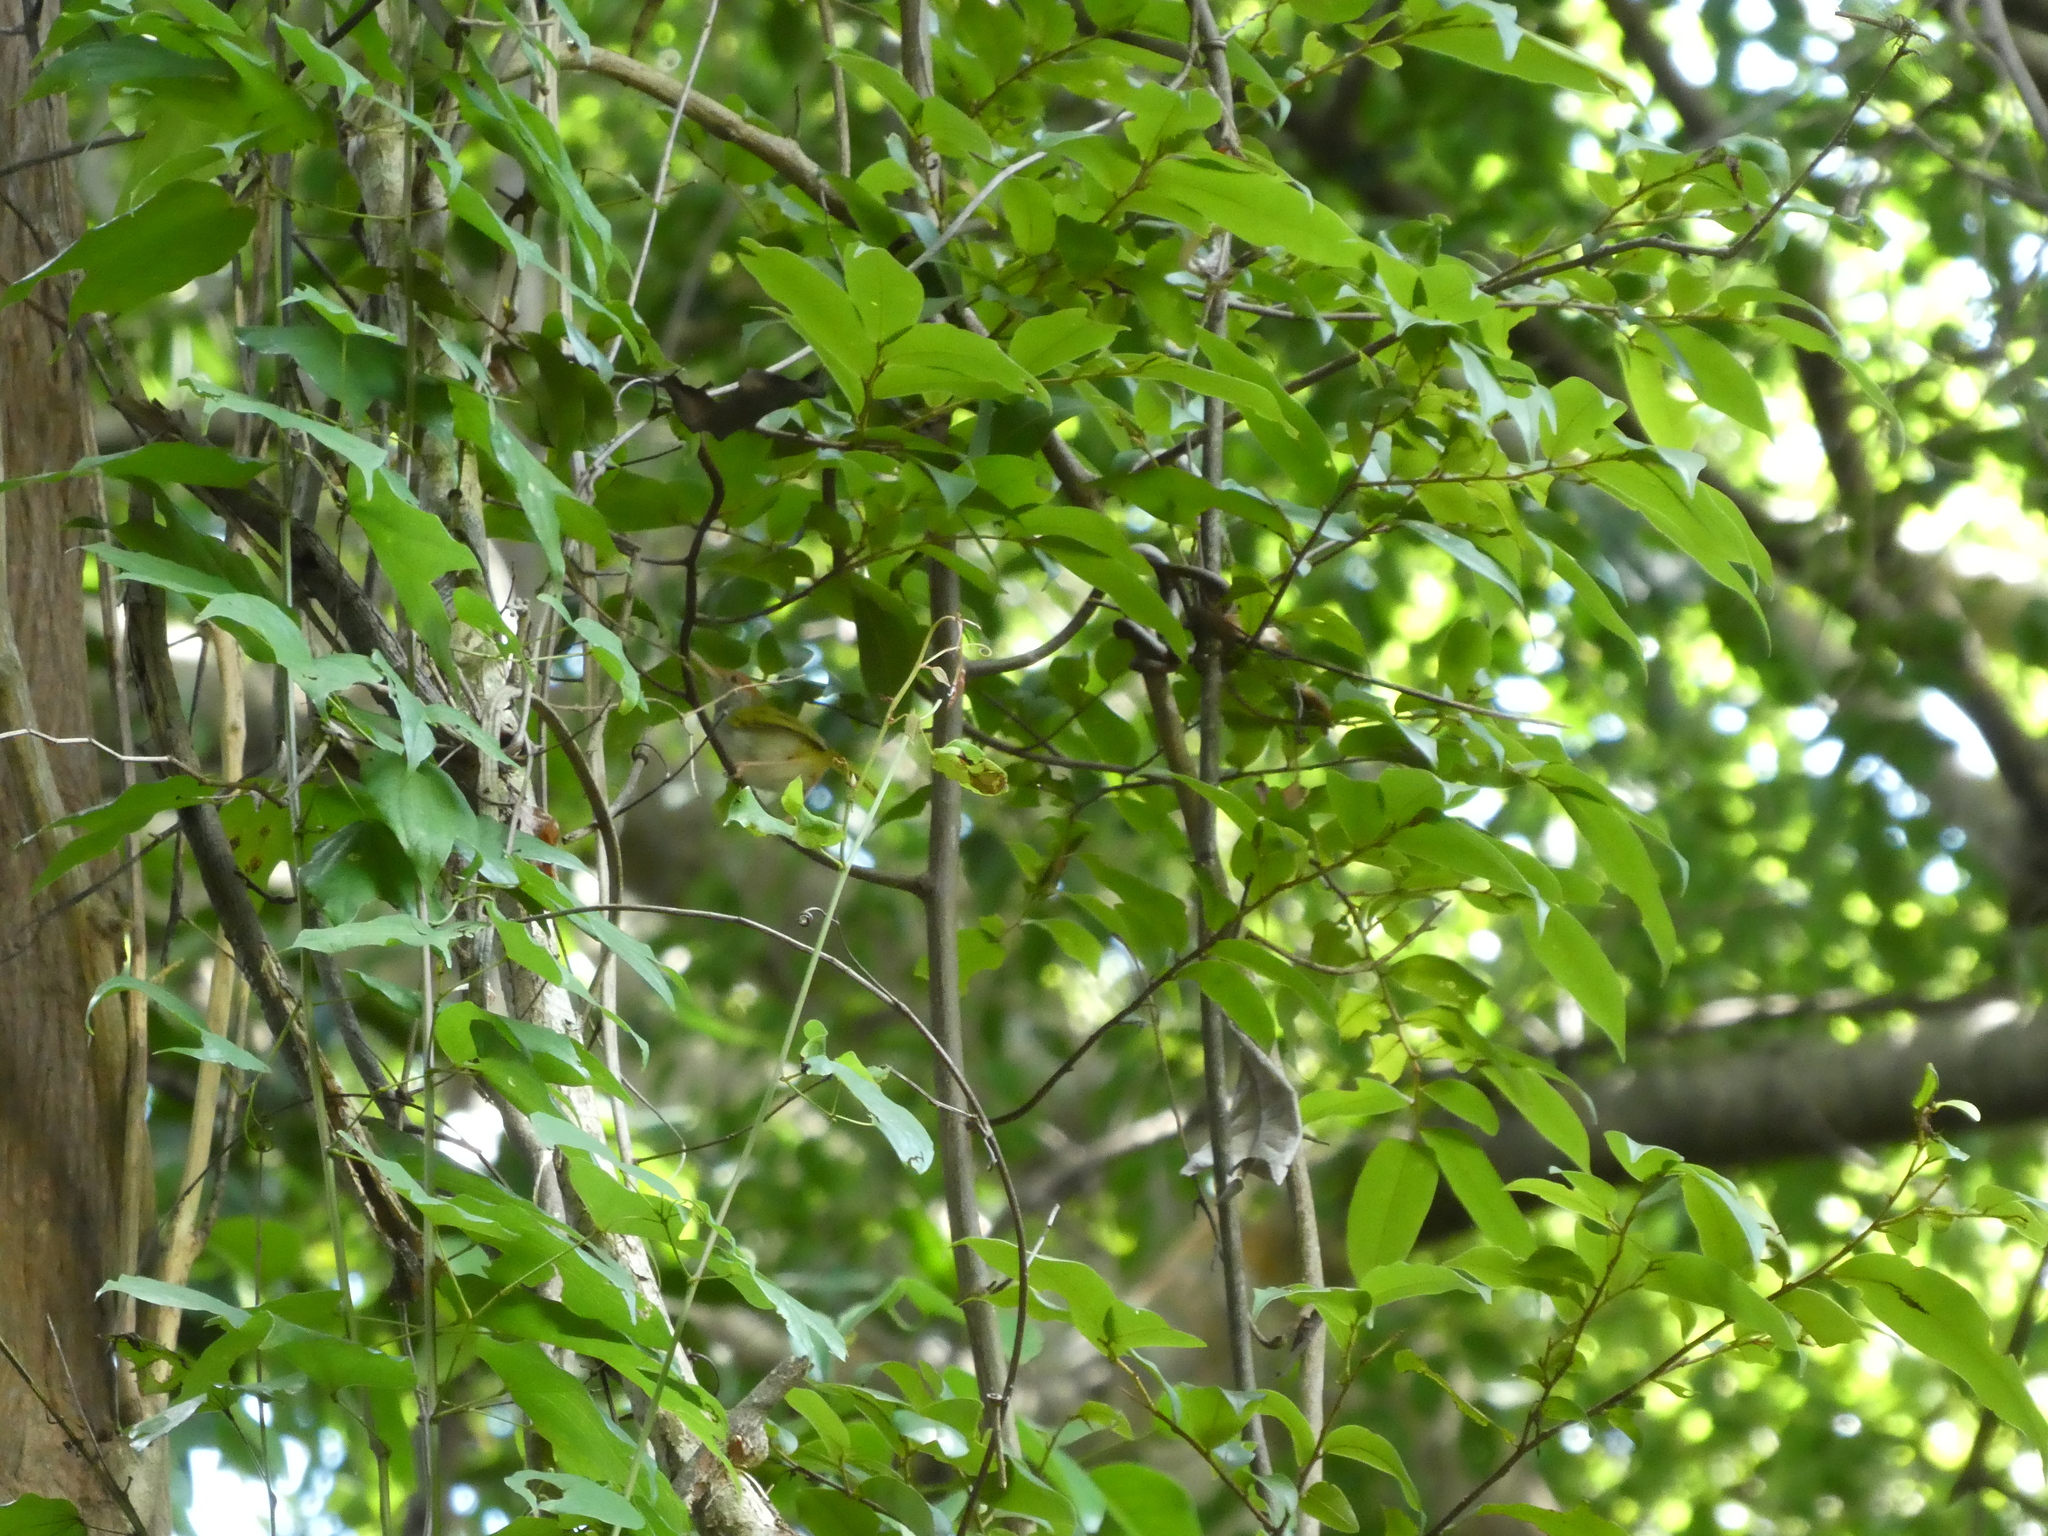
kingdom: Animalia
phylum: Chordata
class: Aves
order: Passeriformes
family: Cisticolidae
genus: Orthotomus
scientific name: Orthotomus sutorius
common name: Common tailorbird
